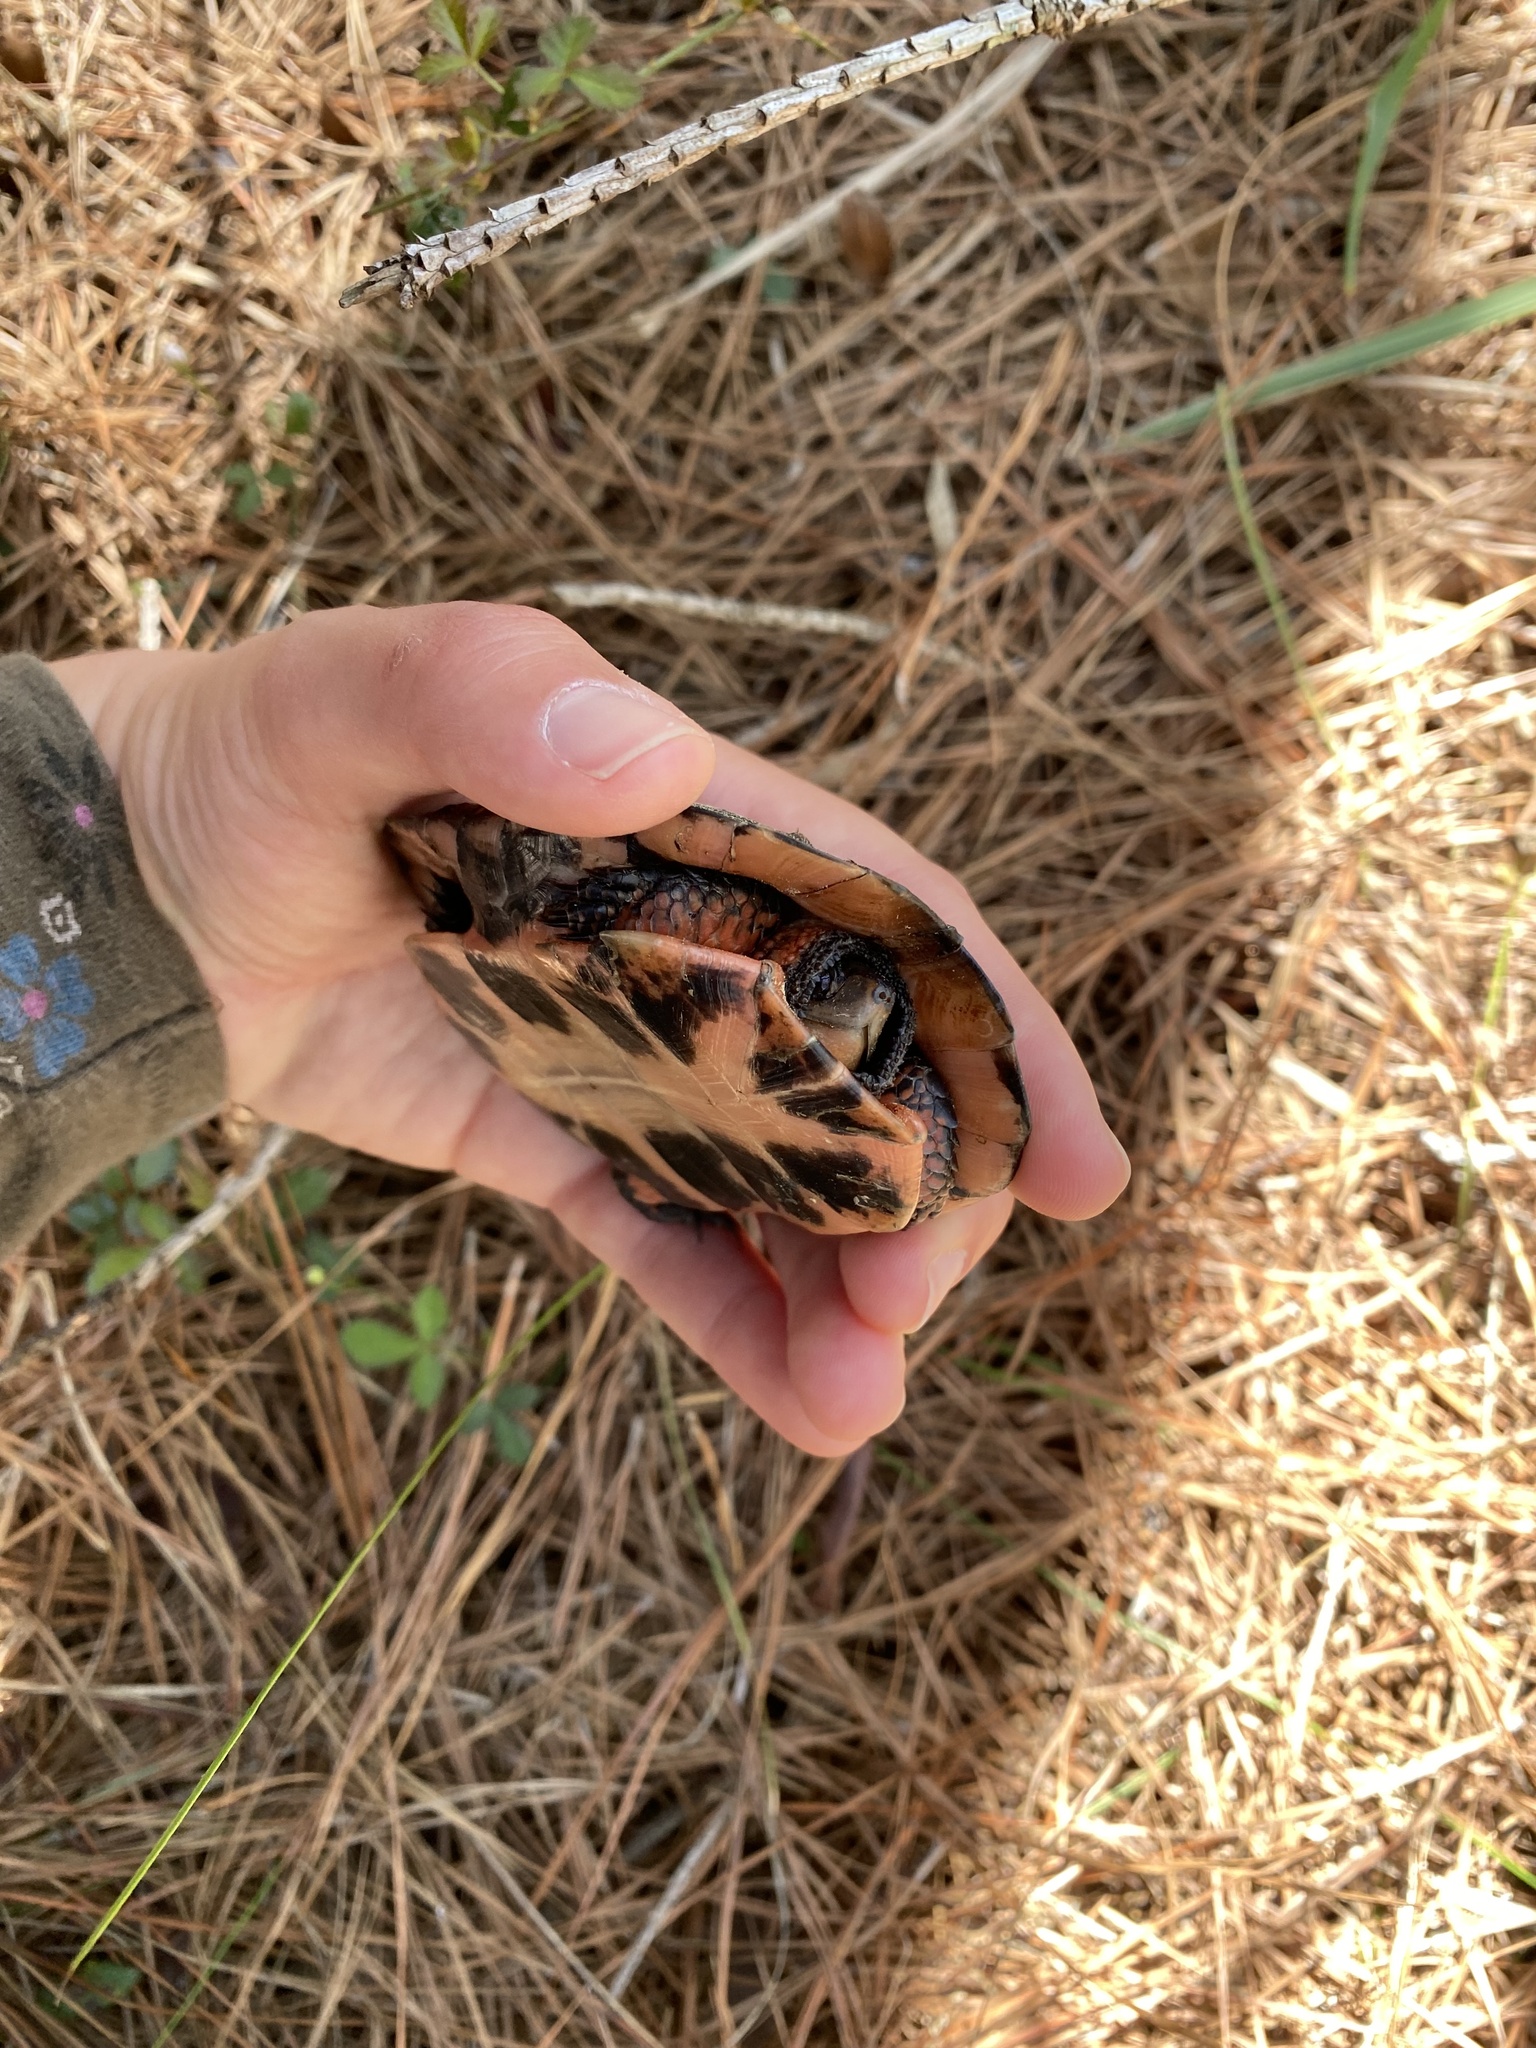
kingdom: Animalia
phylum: Chordata
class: Testudines
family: Emydidae
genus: Clemmys
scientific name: Clemmys guttata
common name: Spotted turtle
